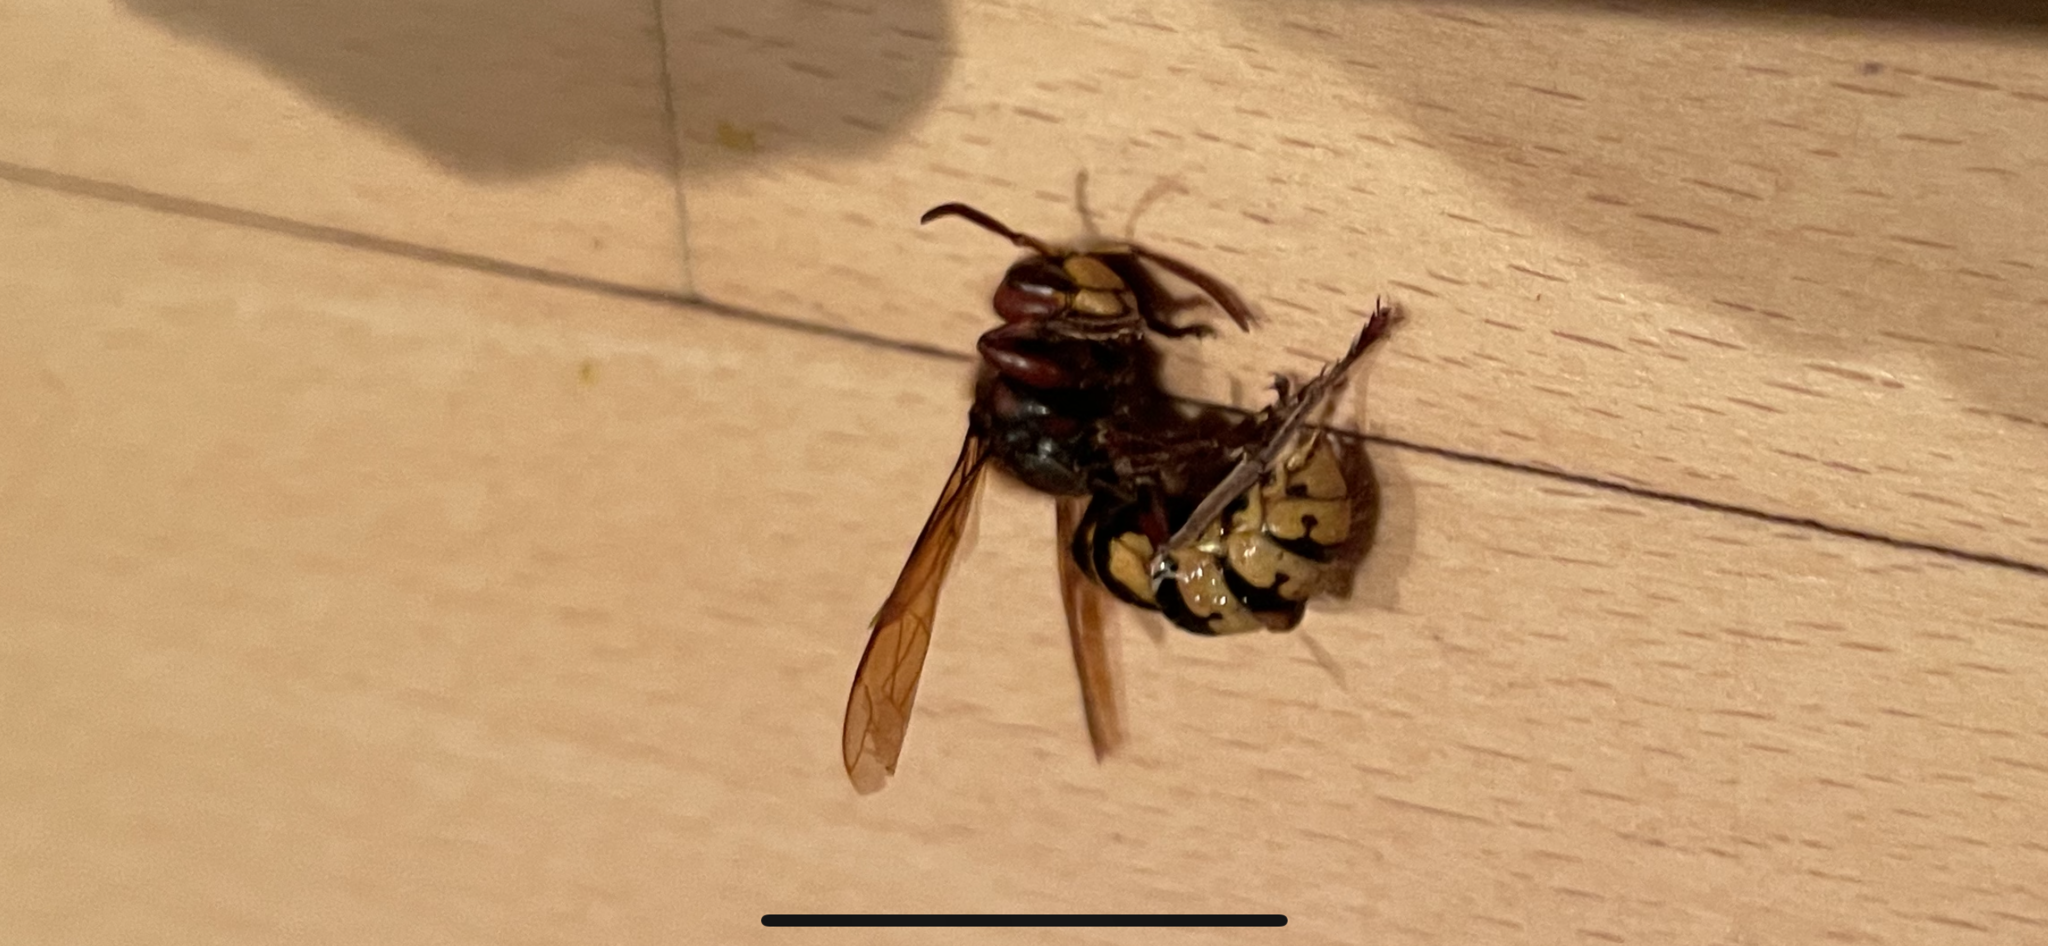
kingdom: Animalia
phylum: Arthropoda
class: Insecta
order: Hymenoptera
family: Vespidae
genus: Vespa
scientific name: Vespa crabro
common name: Hornet
